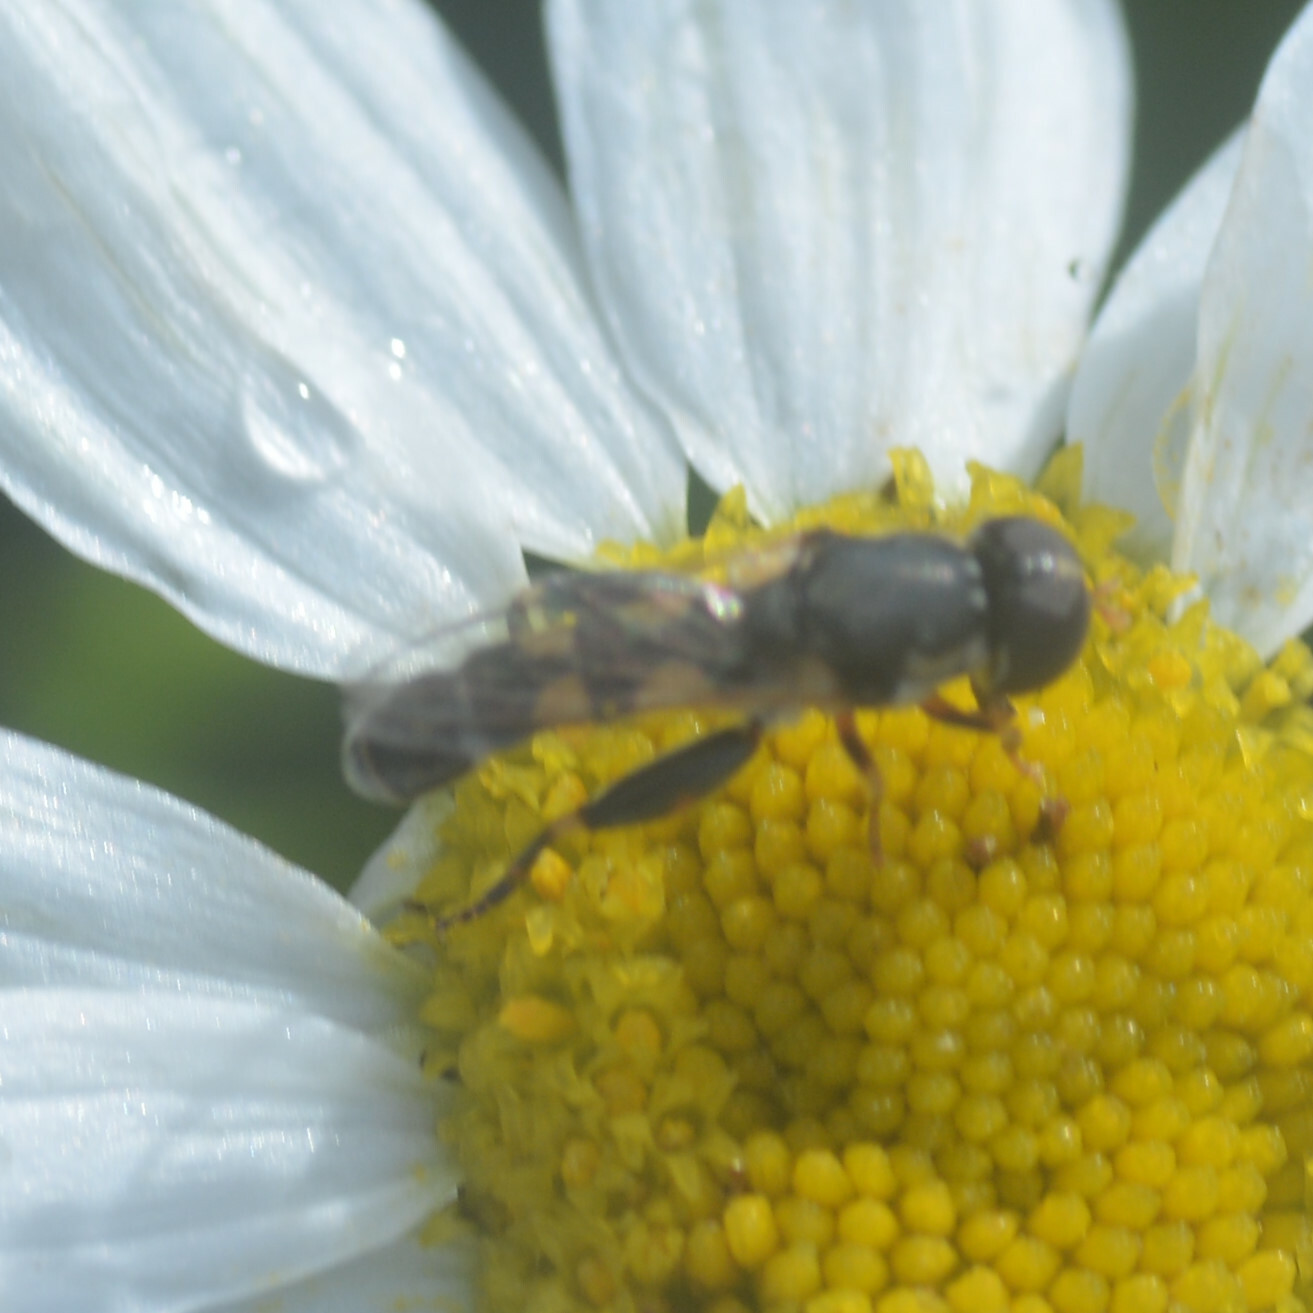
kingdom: Animalia
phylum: Arthropoda
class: Insecta
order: Diptera
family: Syrphidae
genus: Syritta
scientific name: Syritta pipiens
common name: Hover fly
